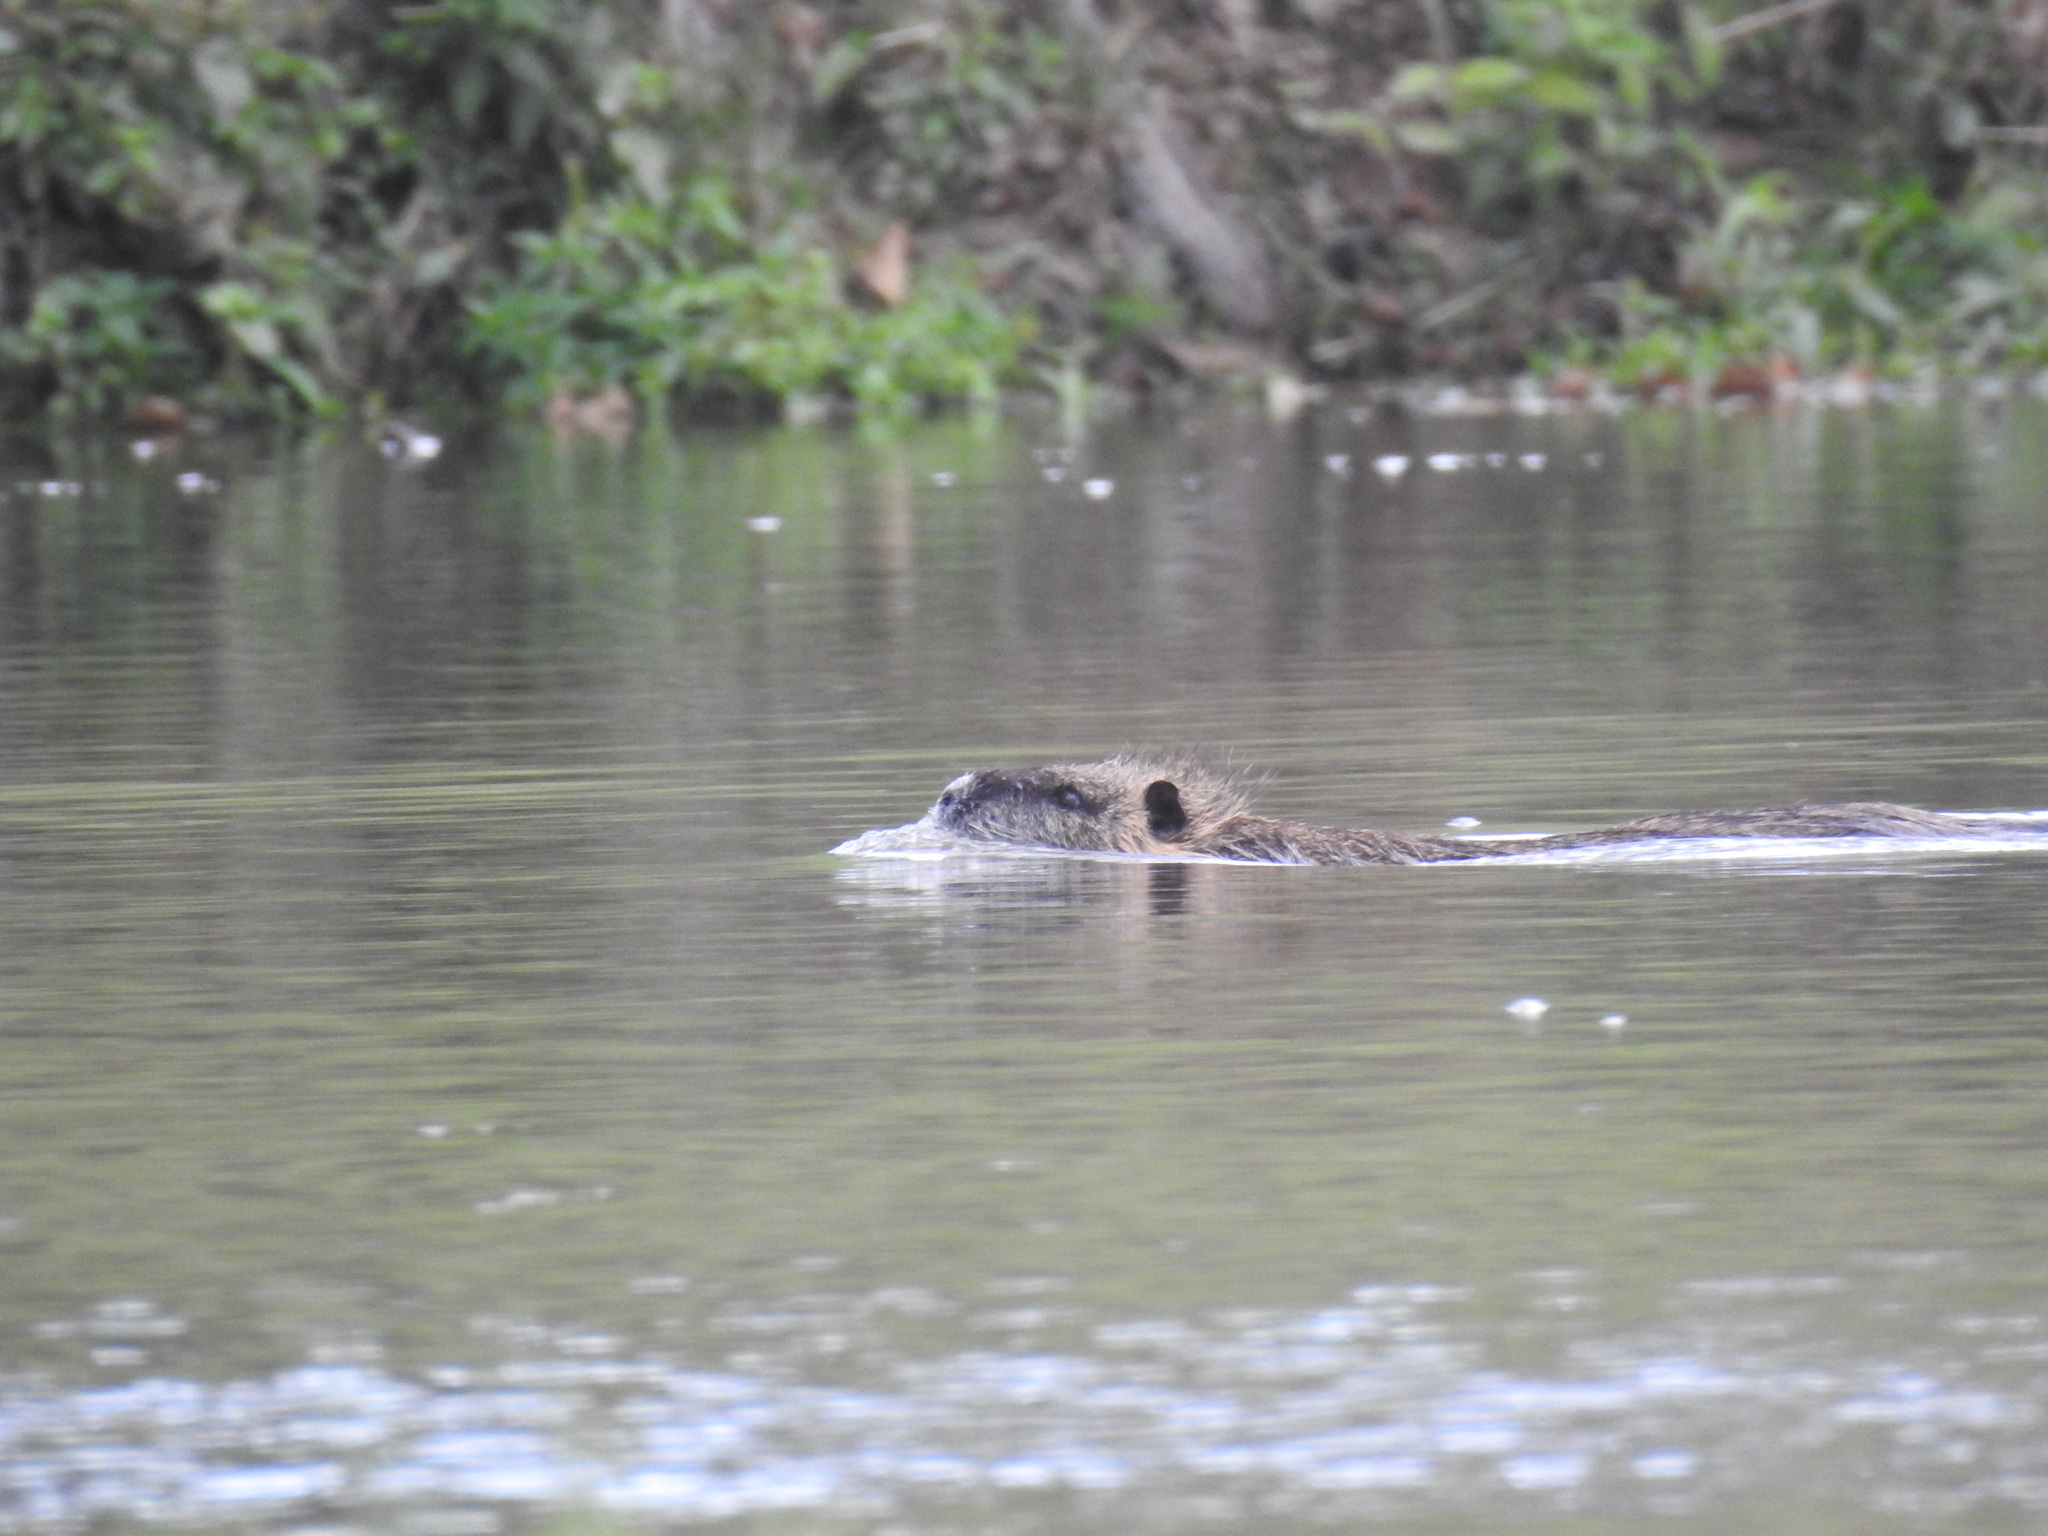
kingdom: Animalia
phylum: Chordata
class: Mammalia
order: Rodentia
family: Myocastoridae
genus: Myocastor
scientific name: Myocastor coypus
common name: Coypu
